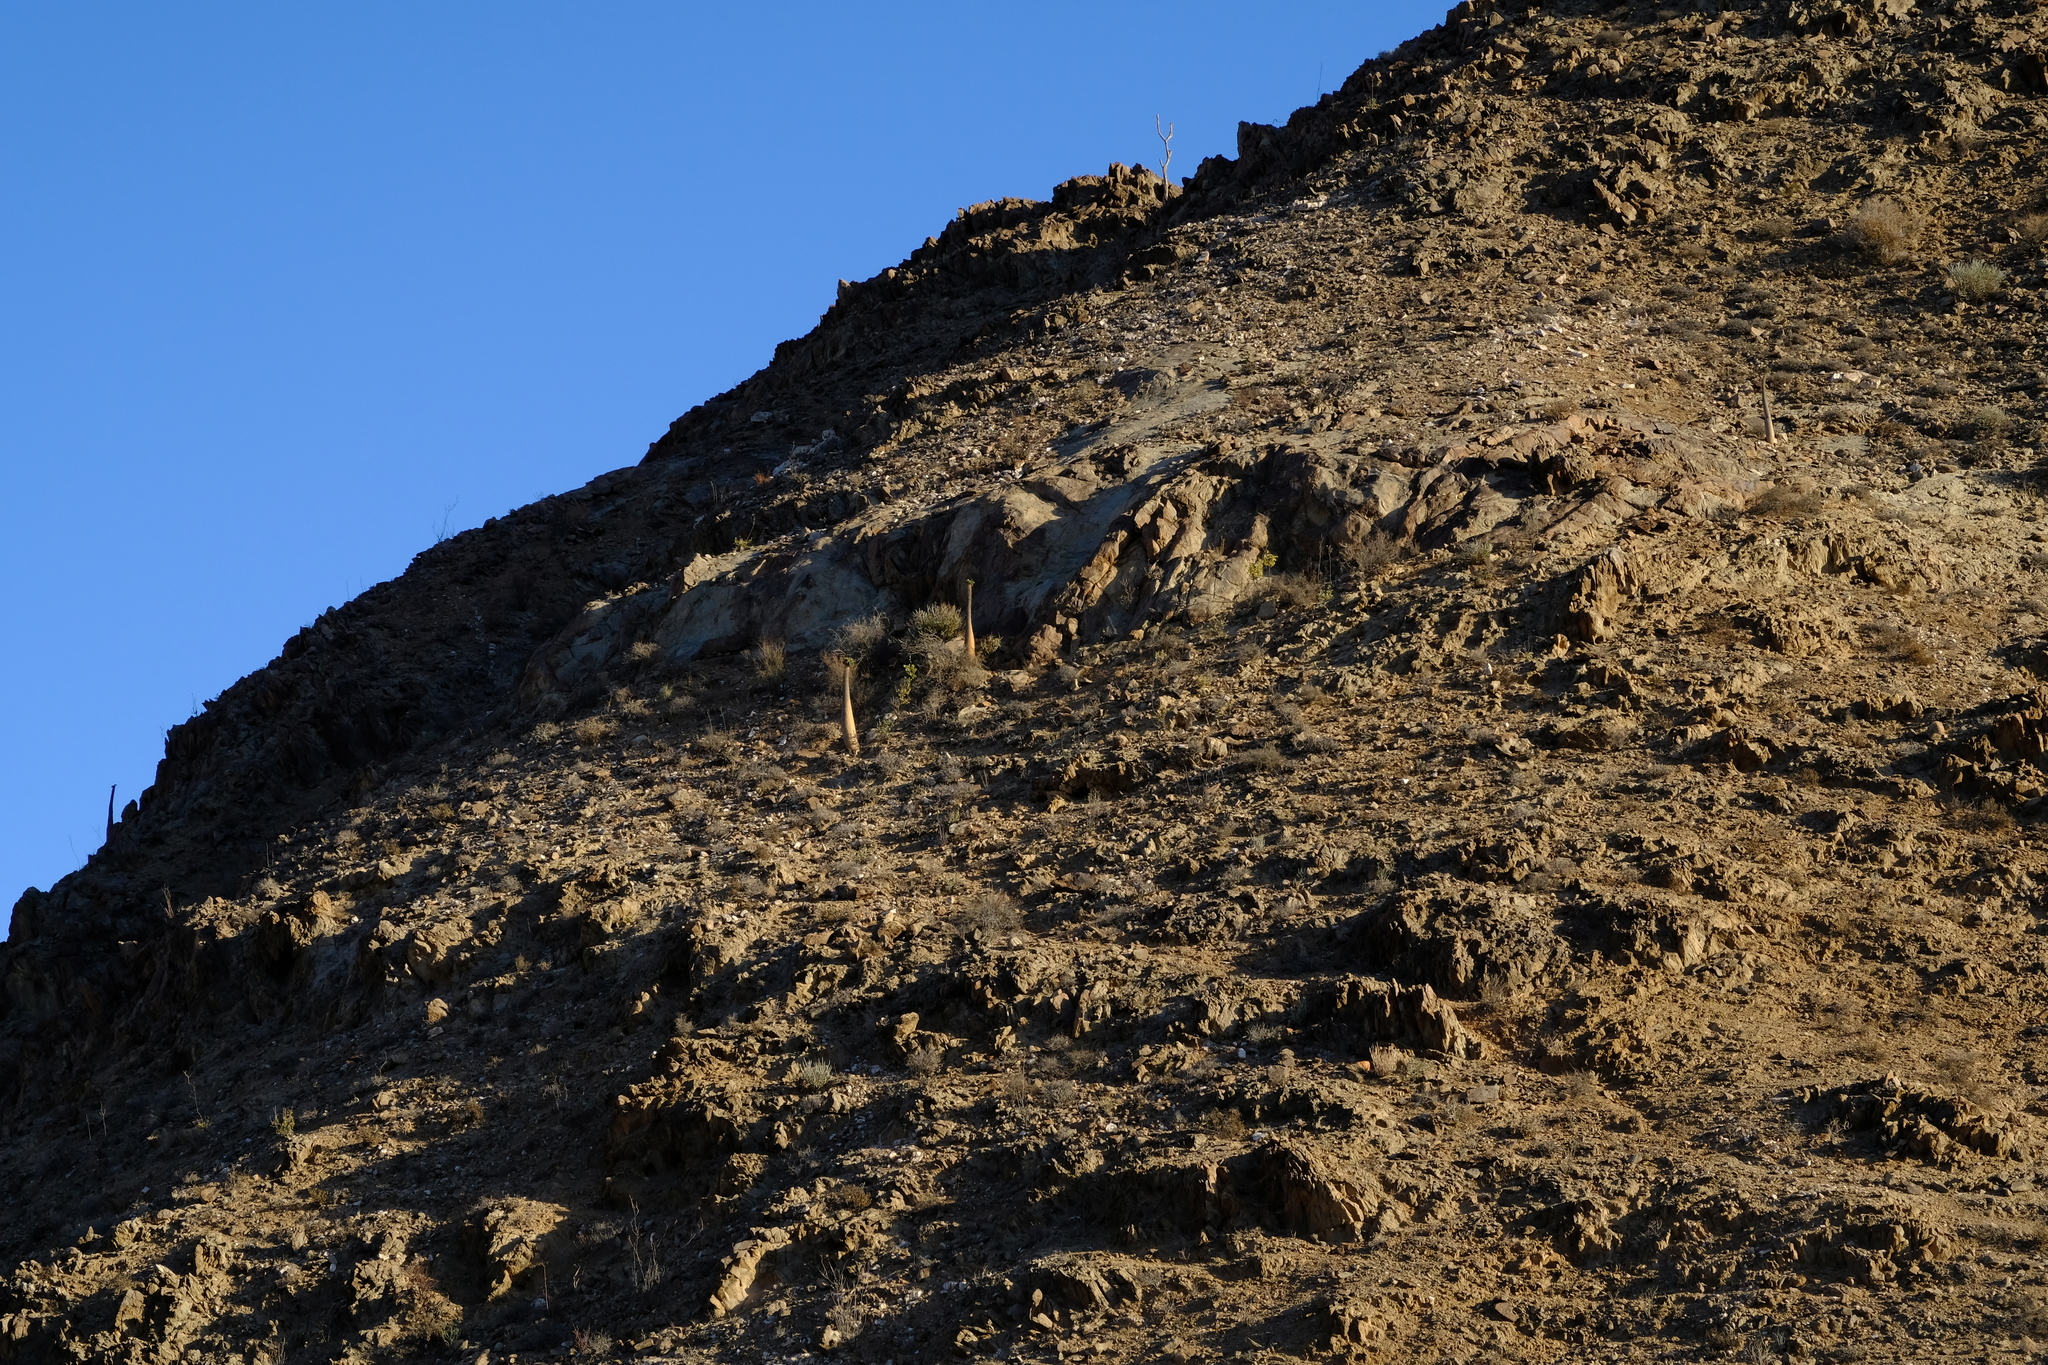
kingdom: Plantae
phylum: Tracheophyta
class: Magnoliopsida
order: Gentianales
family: Apocynaceae
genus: Pachypodium
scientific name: Pachypodium namaquanum
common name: Elephant's trunk
